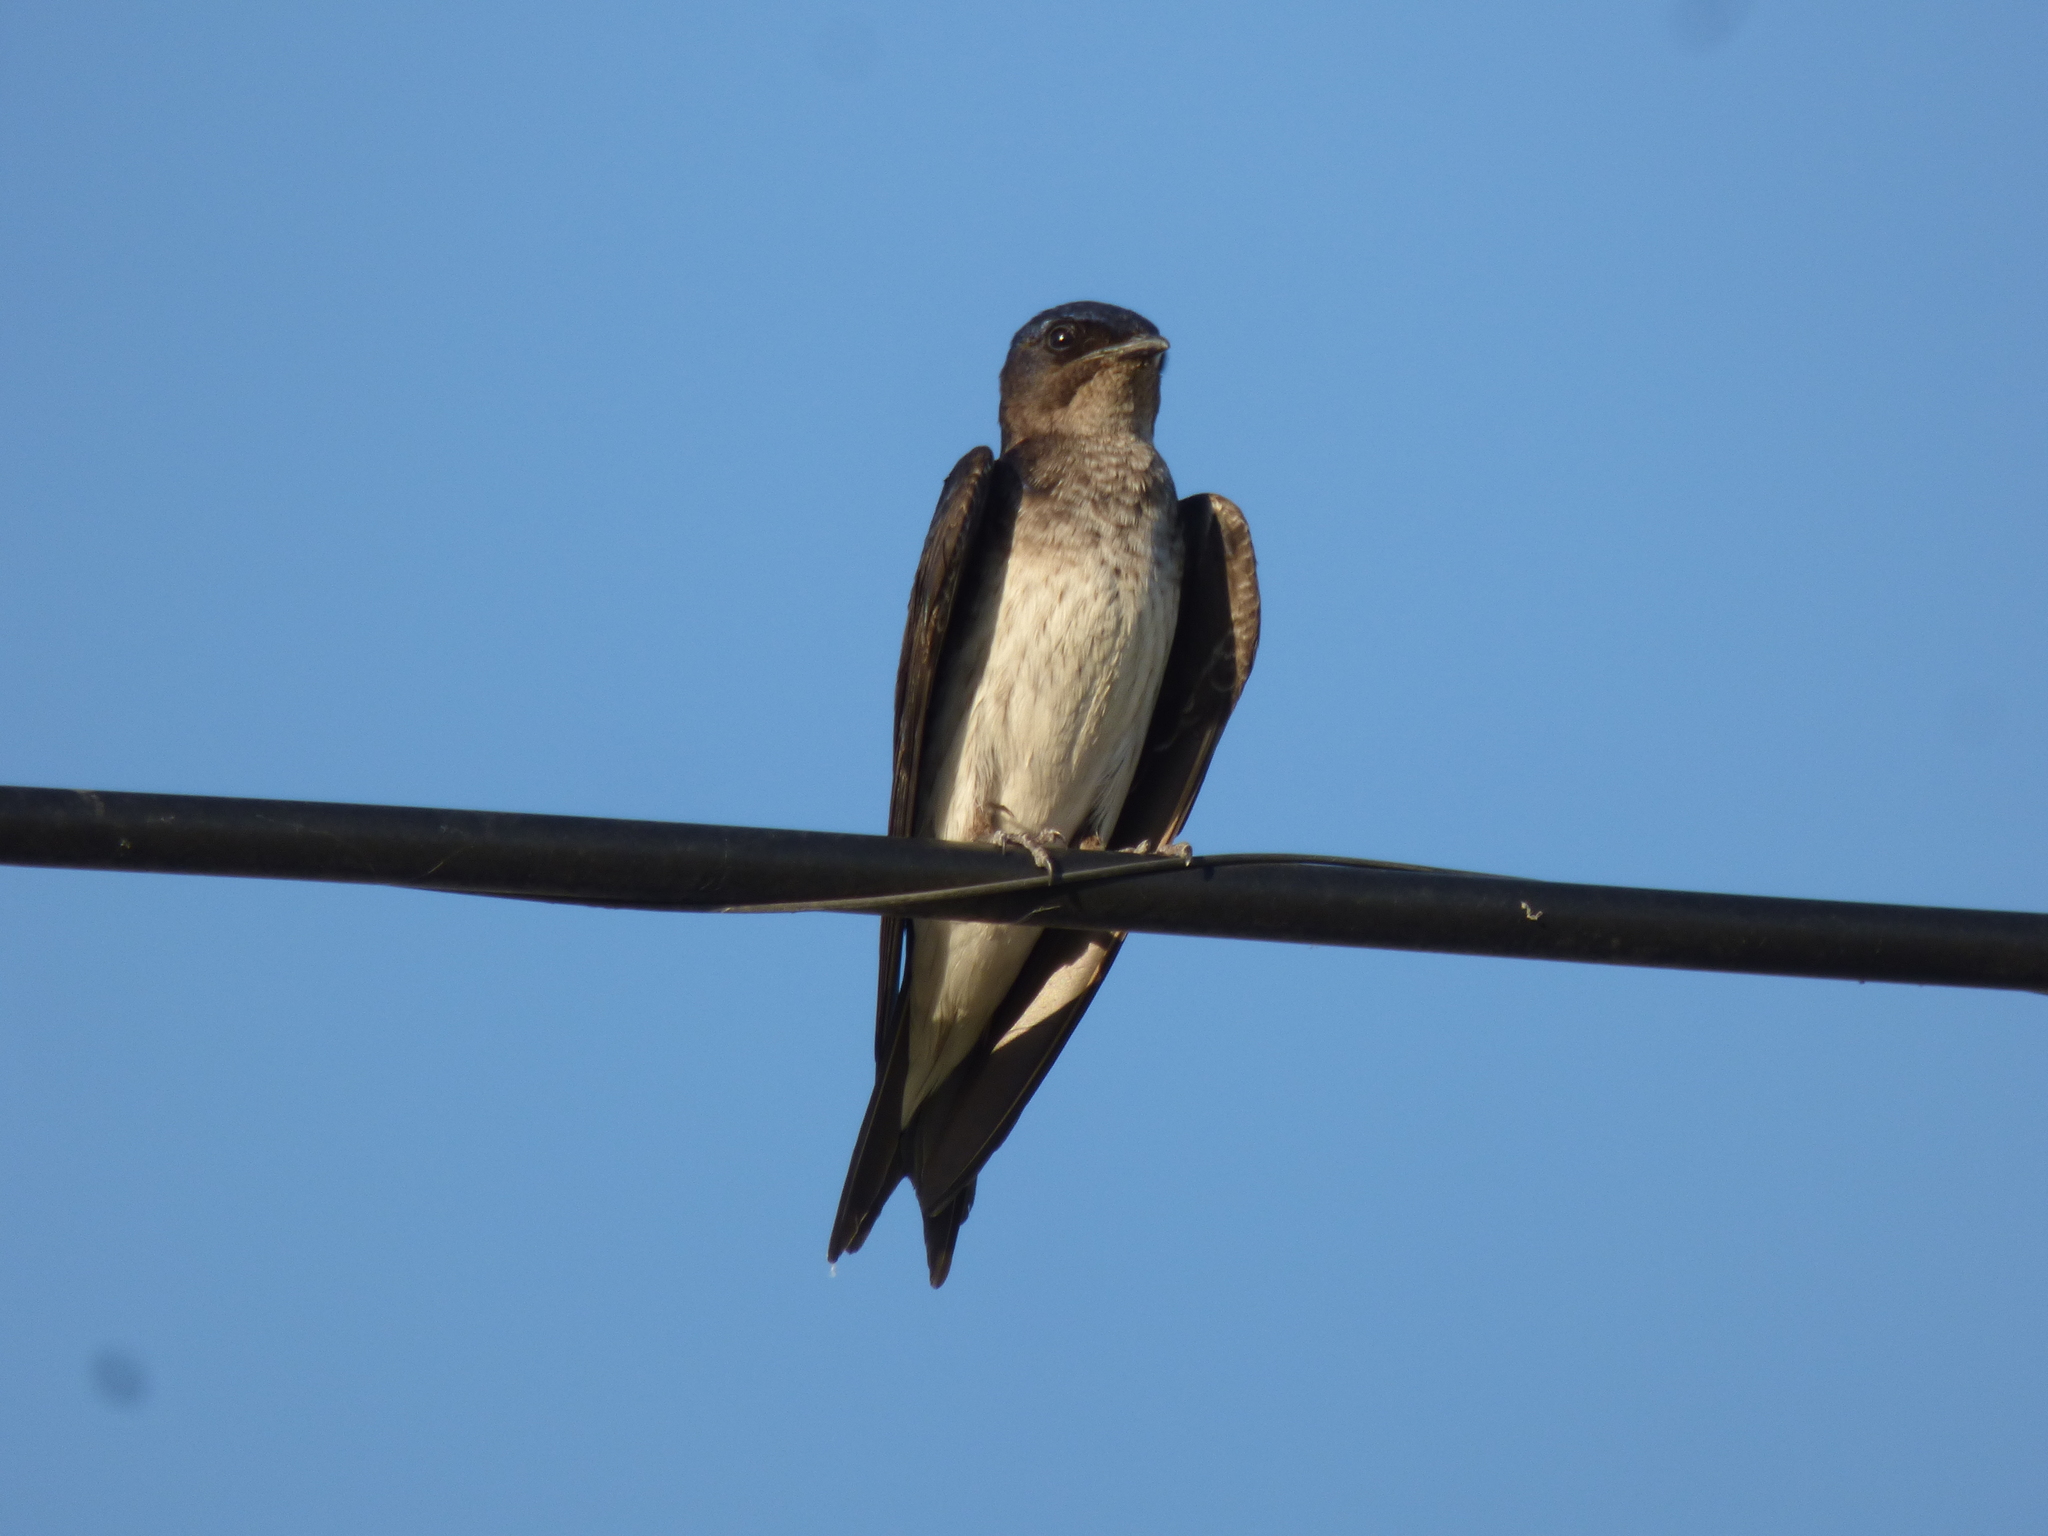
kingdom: Animalia
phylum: Chordata
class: Aves
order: Passeriformes
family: Hirundinidae
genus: Progne
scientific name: Progne chalybea
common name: Grey-breasted martin
